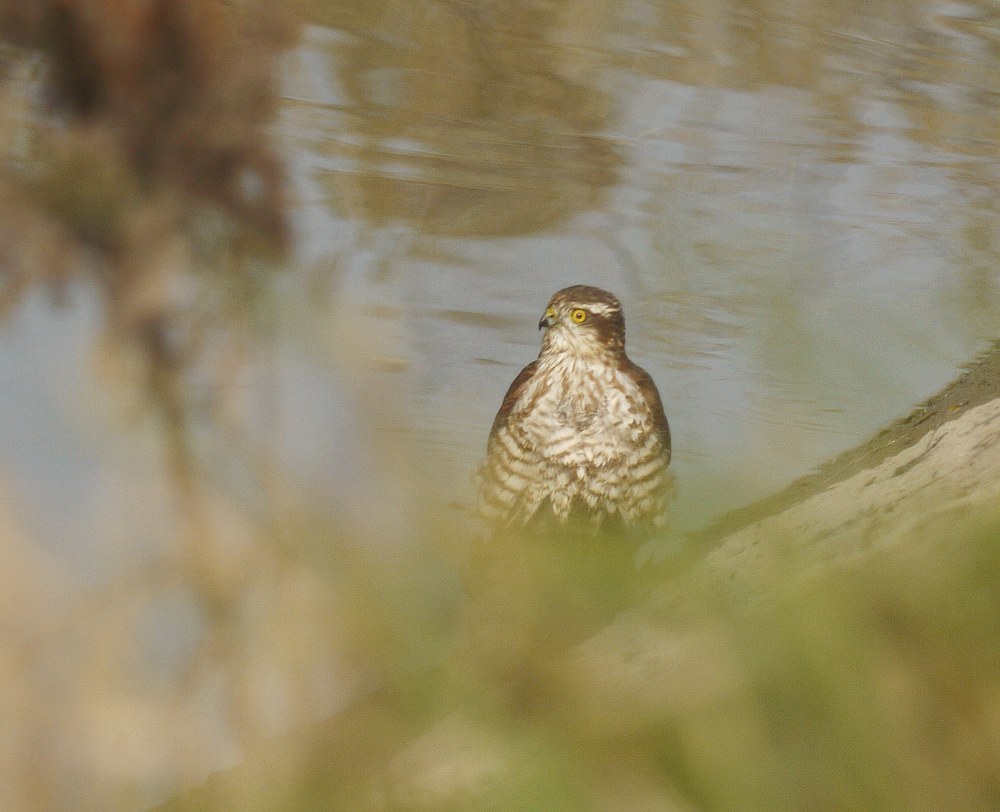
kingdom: Animalia
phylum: Chordata
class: Aves
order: Accipitriformes
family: Accipitridae
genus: Accipiter
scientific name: Accipiter nisus
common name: Eurasian sparrowhawk
